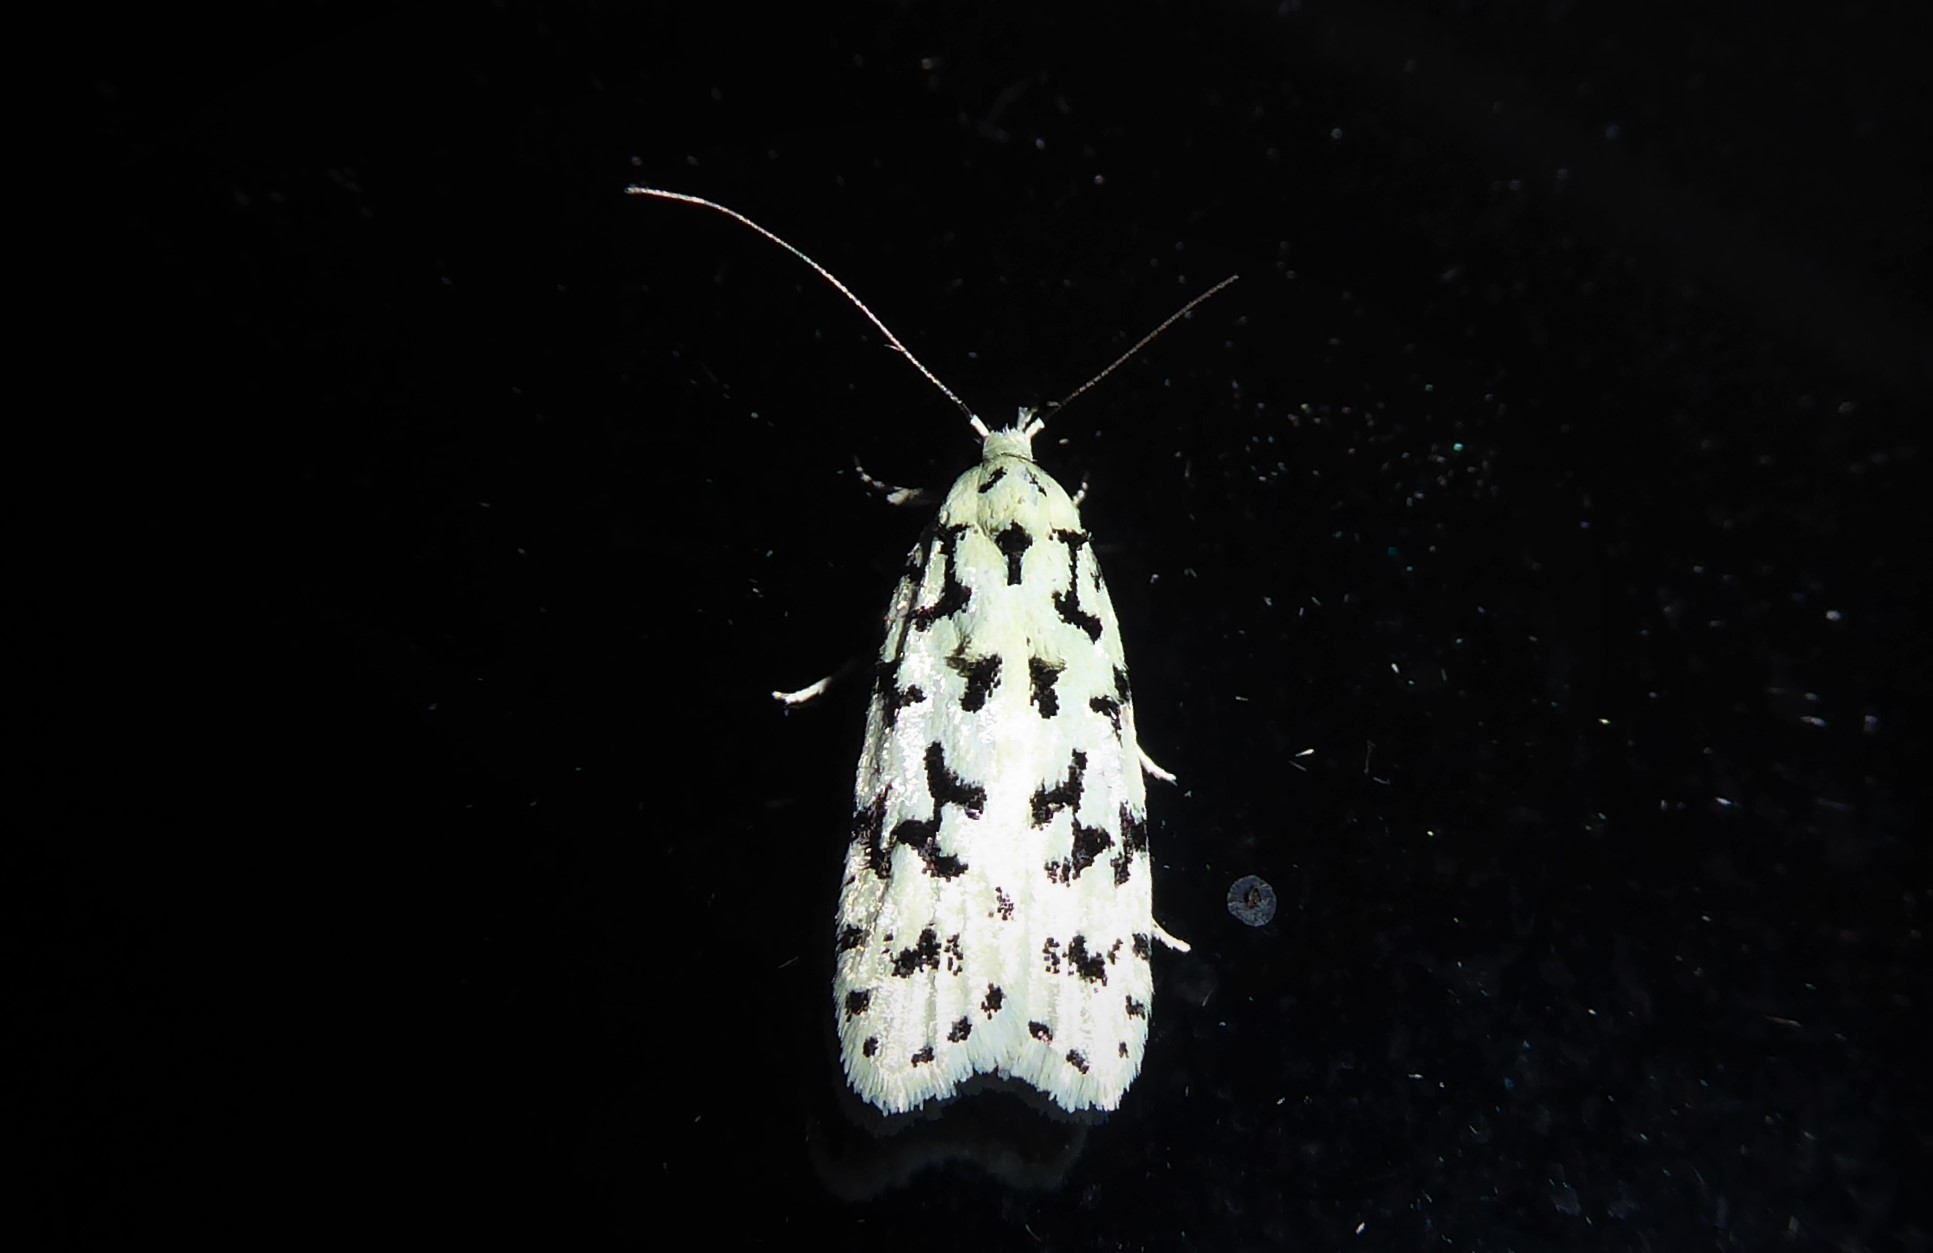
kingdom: Animalia
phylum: Arthropoda
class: Insecta
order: Lepidoptera
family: Oecophoridae
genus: Izatha
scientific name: Izatha huttoni
